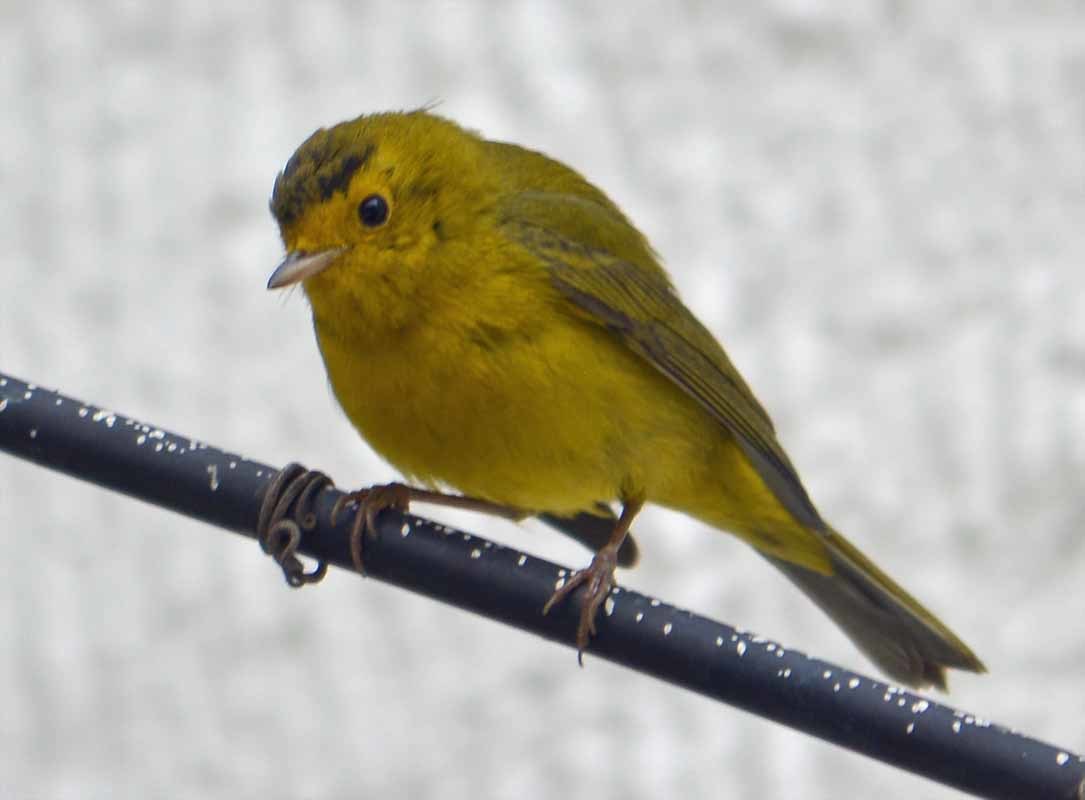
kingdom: Animalia
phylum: Chordata
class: Aves
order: Passeriformes
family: Parulidae
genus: Cardellina
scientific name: Cardellina pusilla
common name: Wilson's warbler
